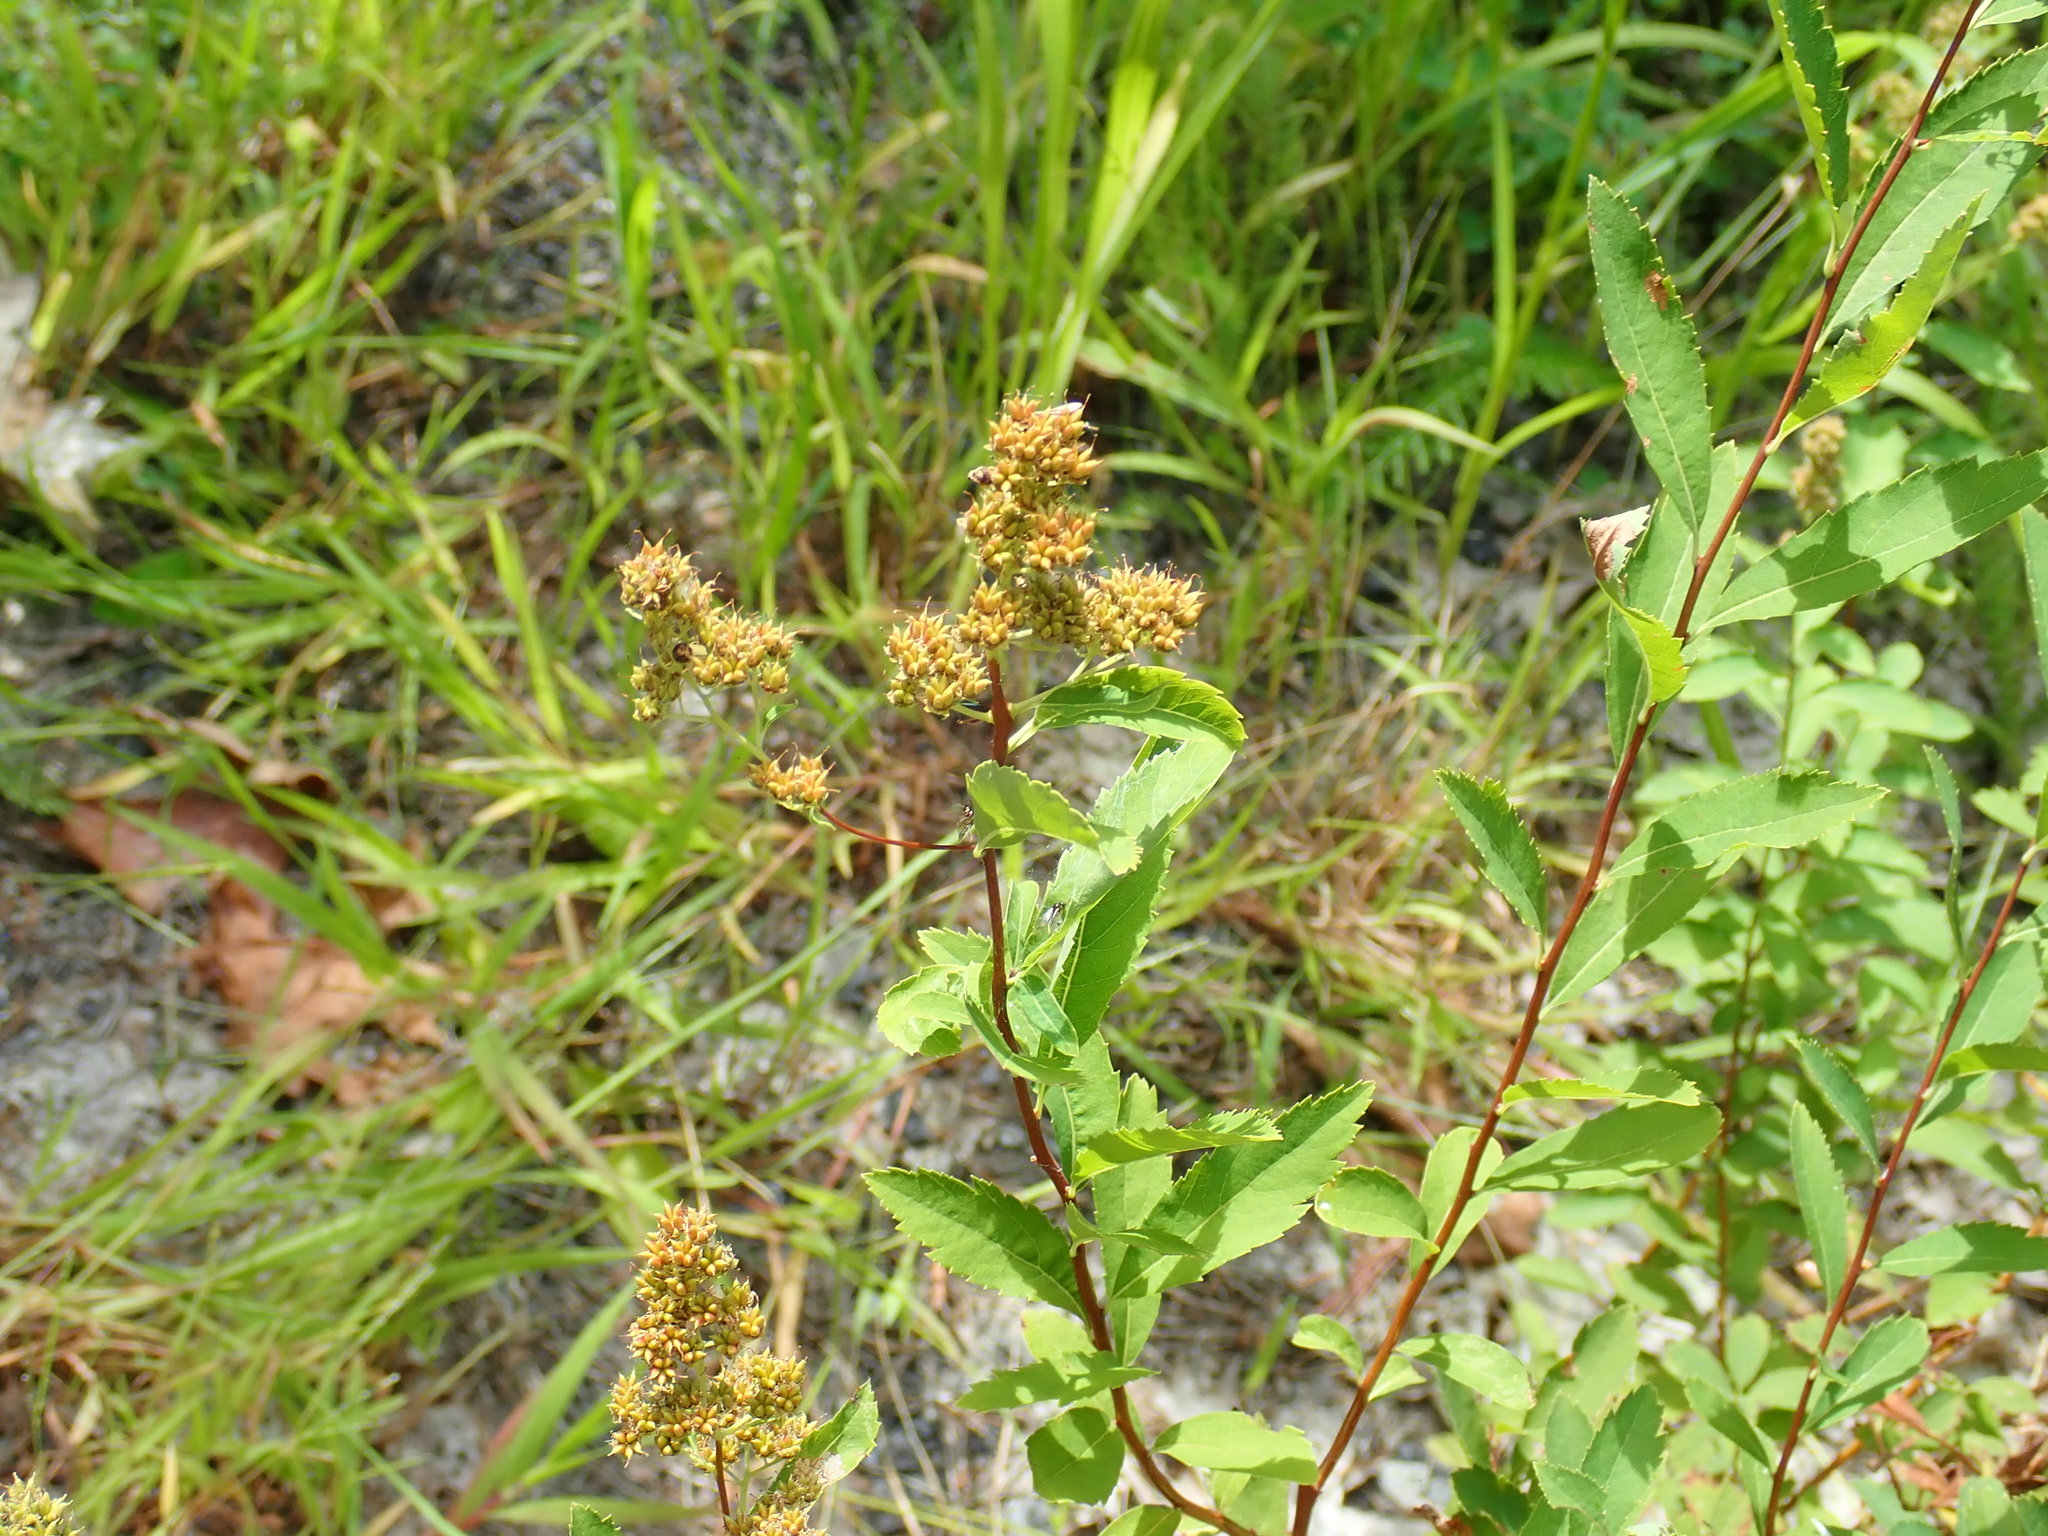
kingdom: Plantae
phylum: Tracheophyta
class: Magnoliopsida
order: Rosales
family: Rosaceae
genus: Spiraea
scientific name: Spiraea alba
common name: Pale bridewort
